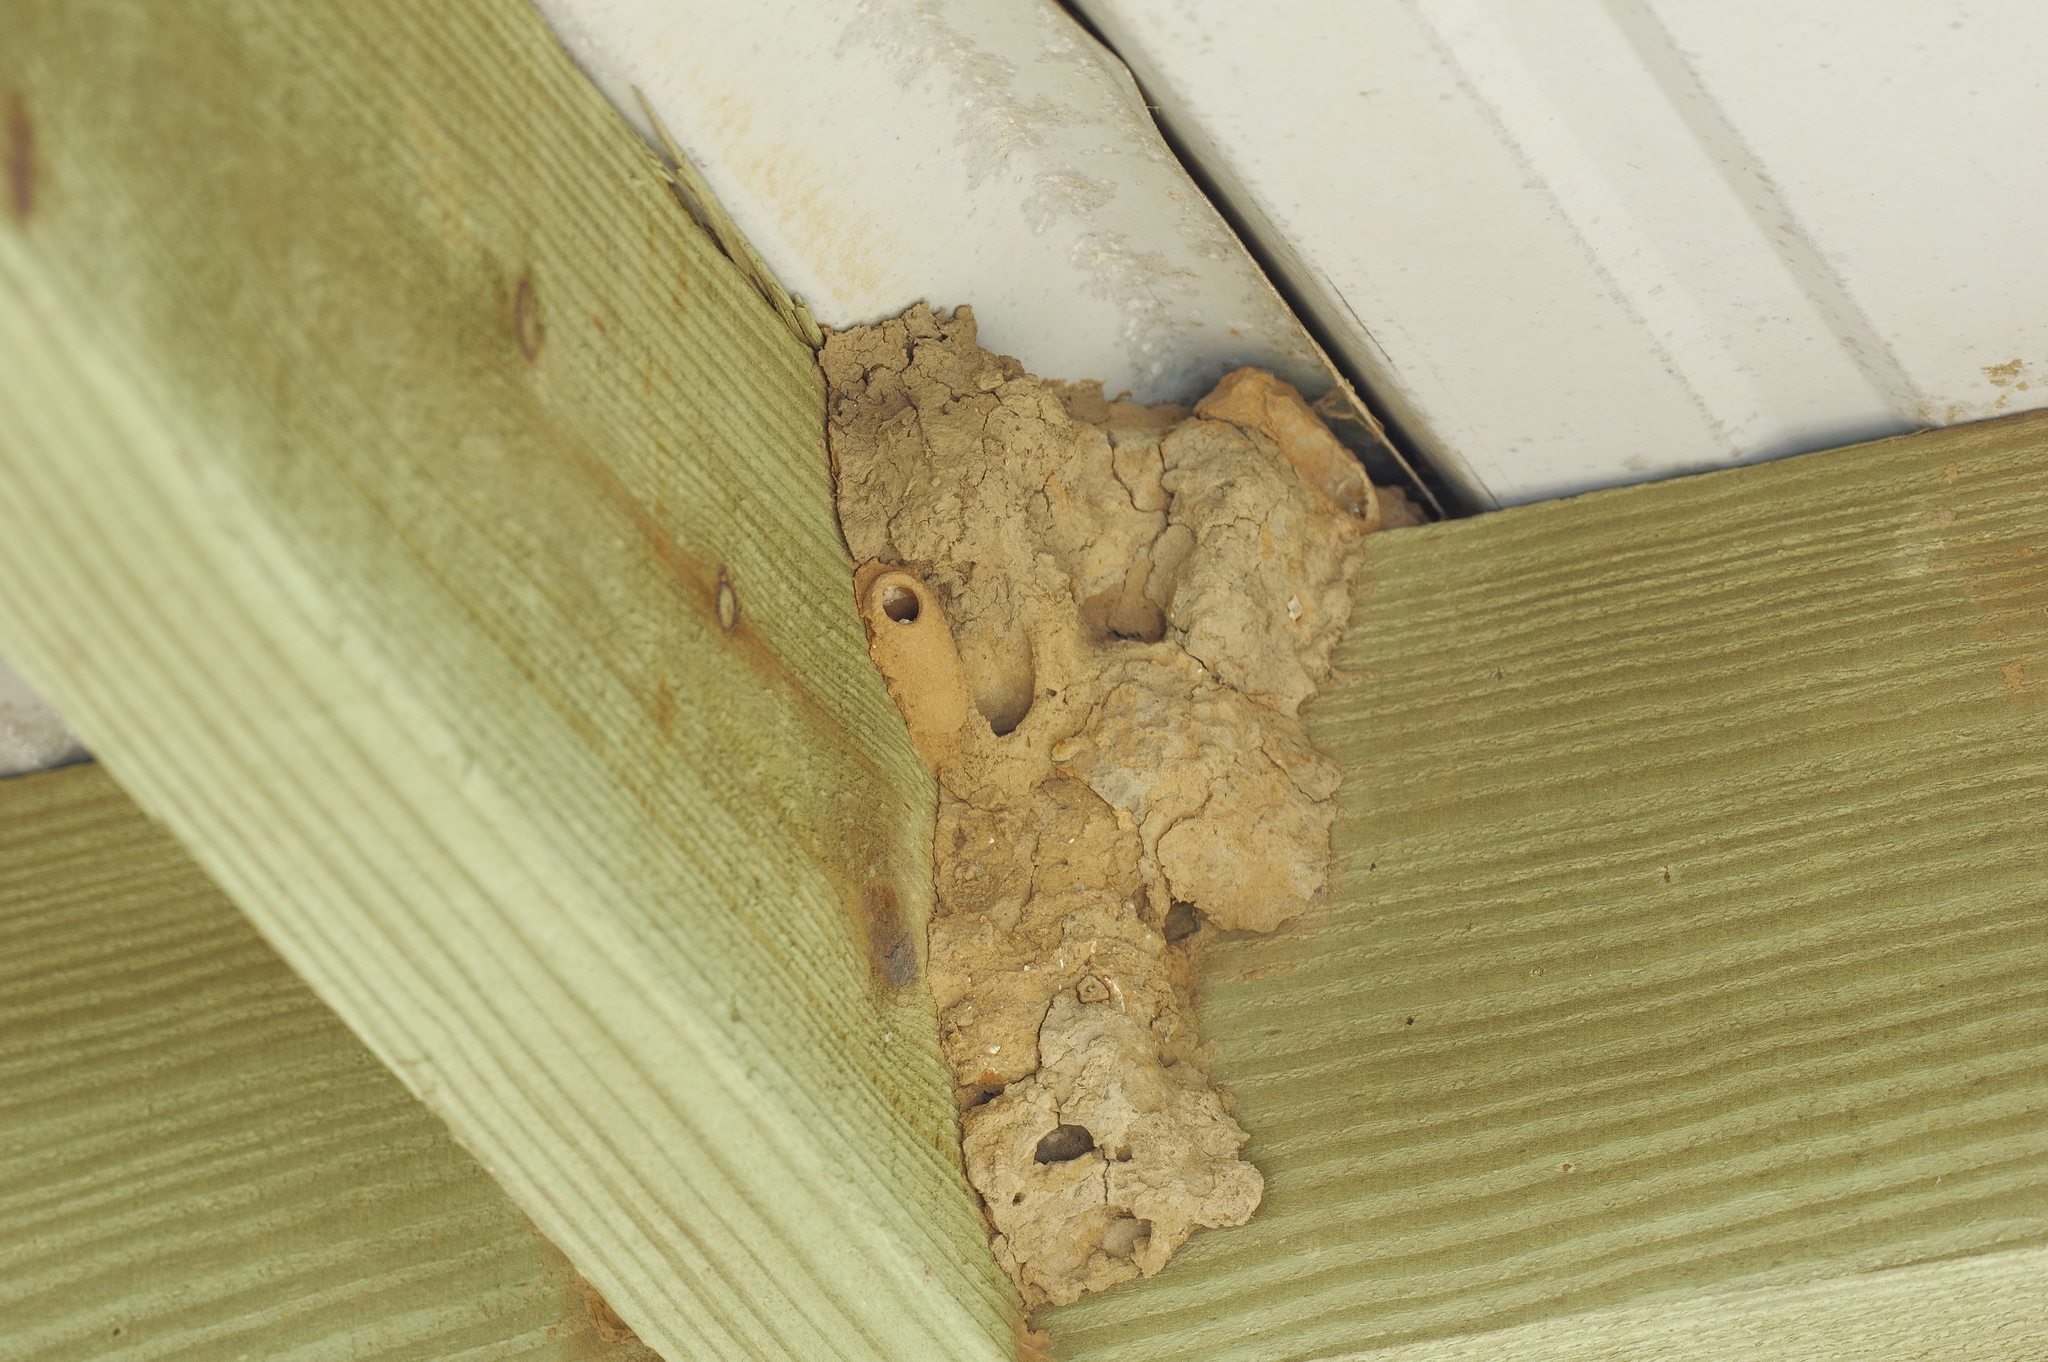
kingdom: Animalia
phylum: Arthropoda
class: Insecta
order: Hymenoptera
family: Sphecidae
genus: Sceliphron
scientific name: Sceliphron
